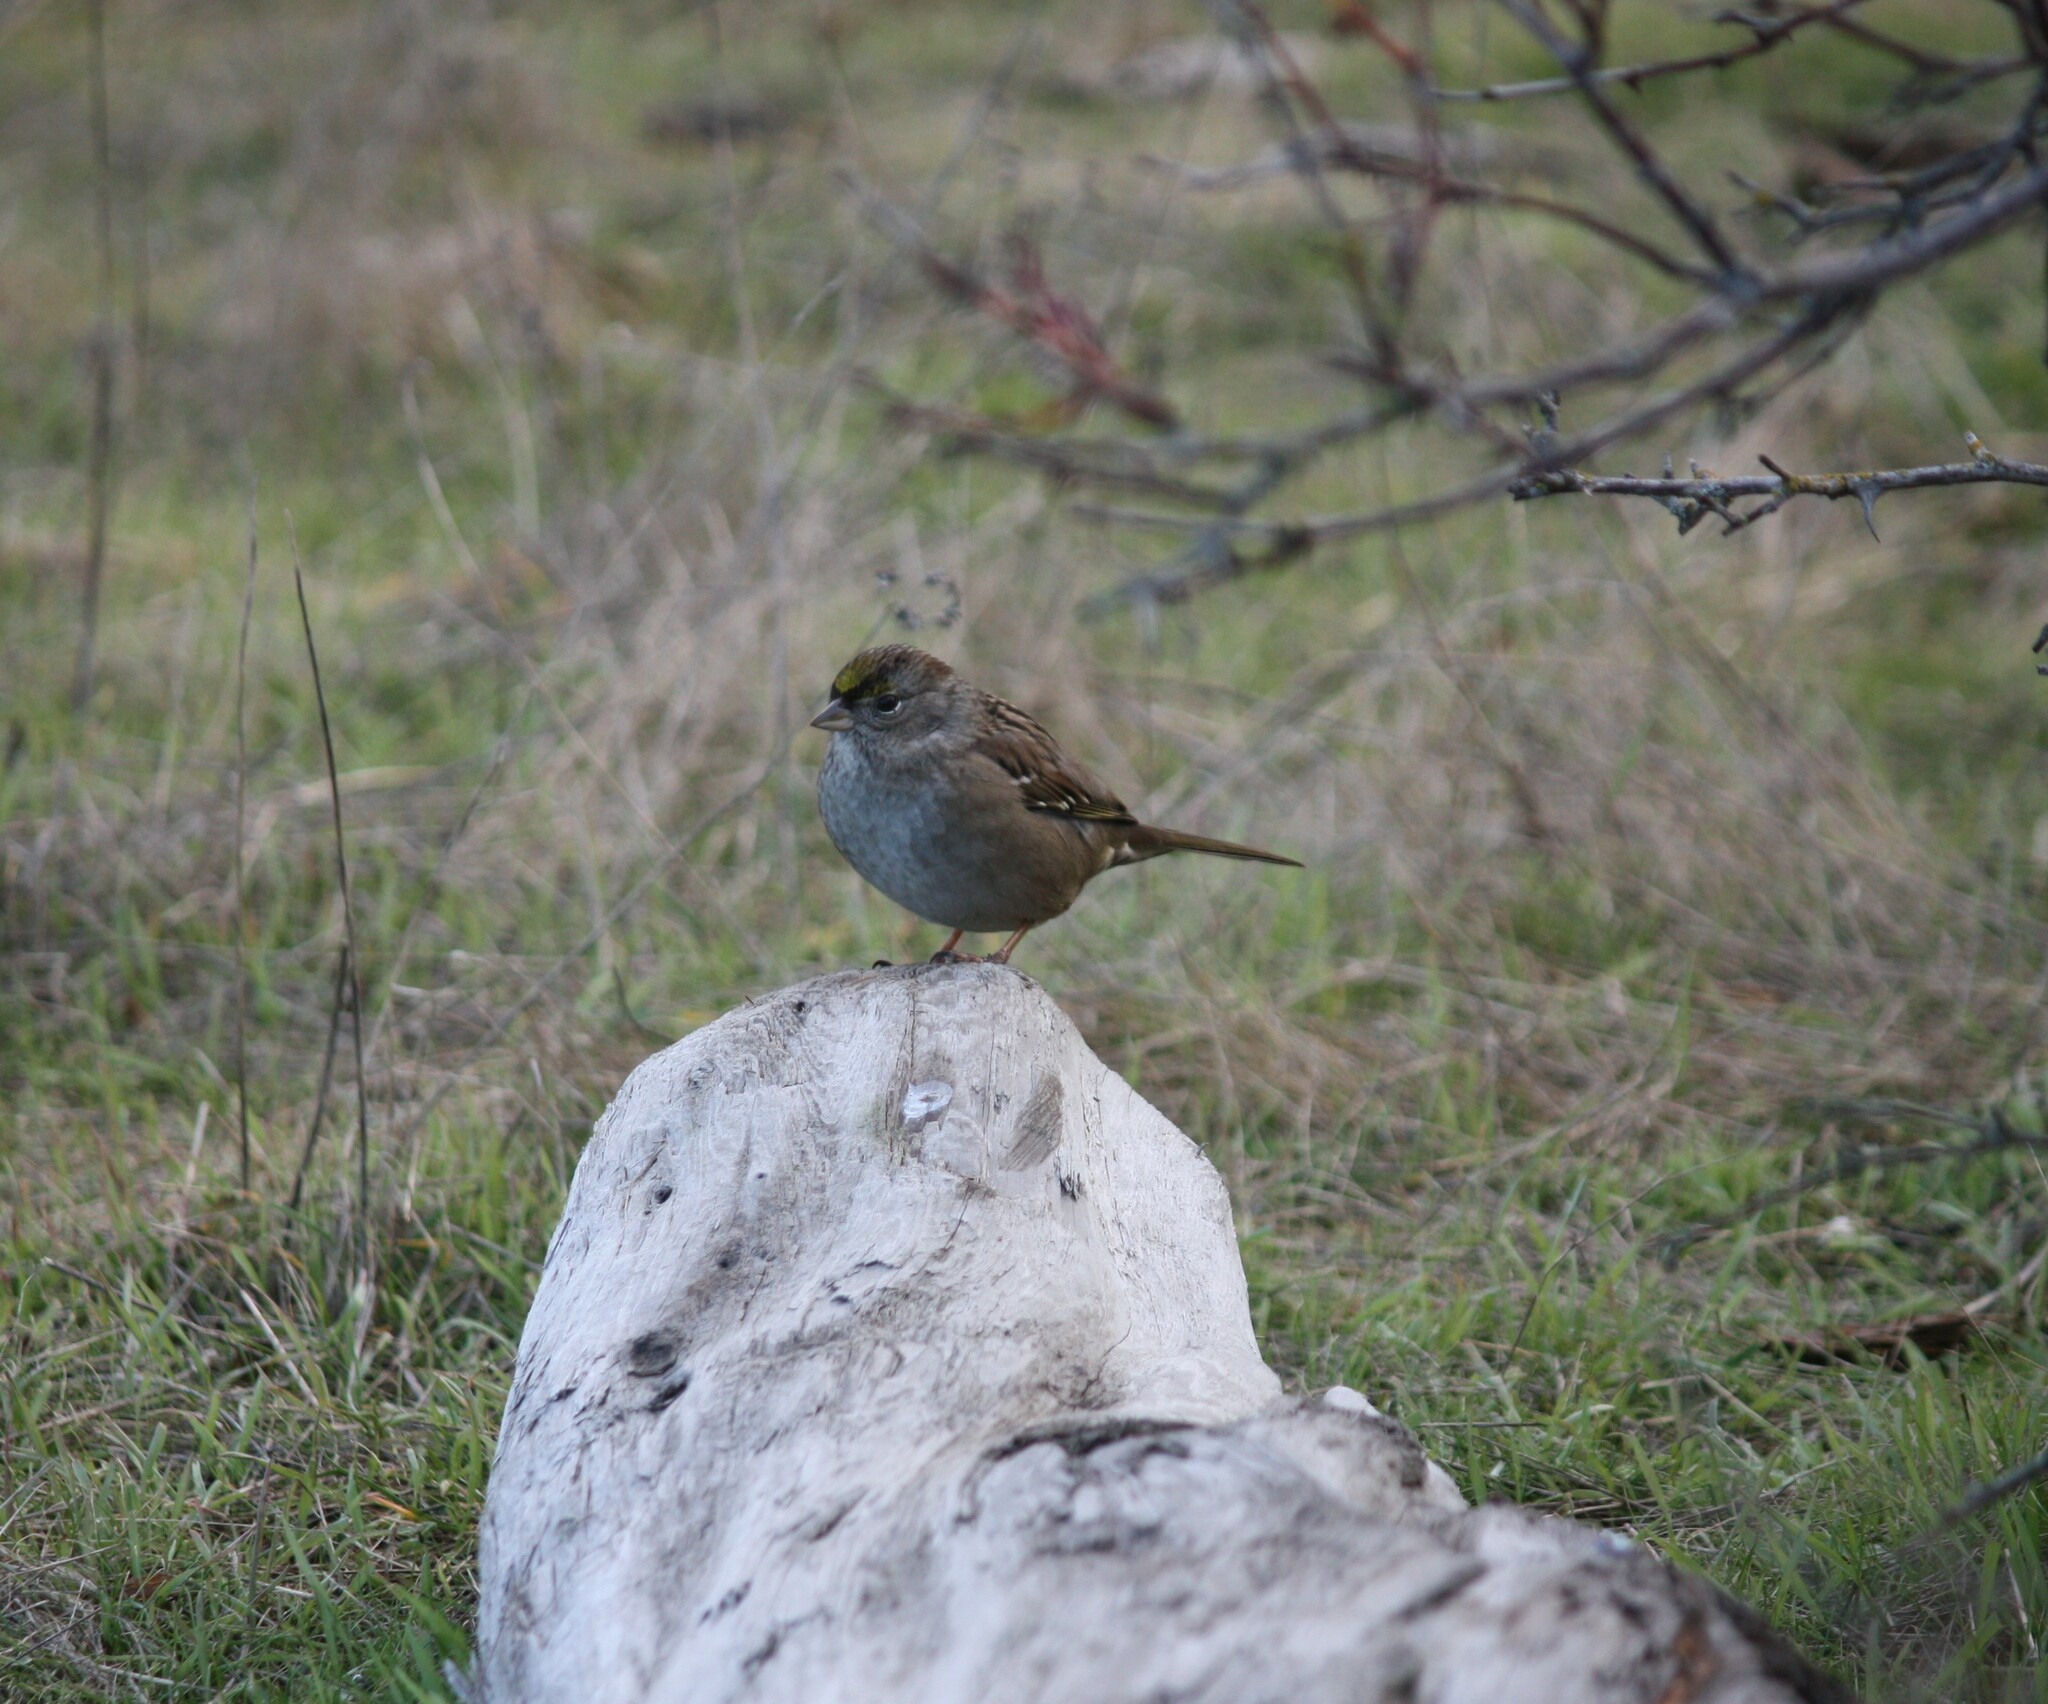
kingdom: Animalia
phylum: Chordata
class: Aves
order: Passeriformes
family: Passerellidae
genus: Zonotrichia
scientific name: Zonotrichia atricapilla
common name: Golden-crowned sparrow
